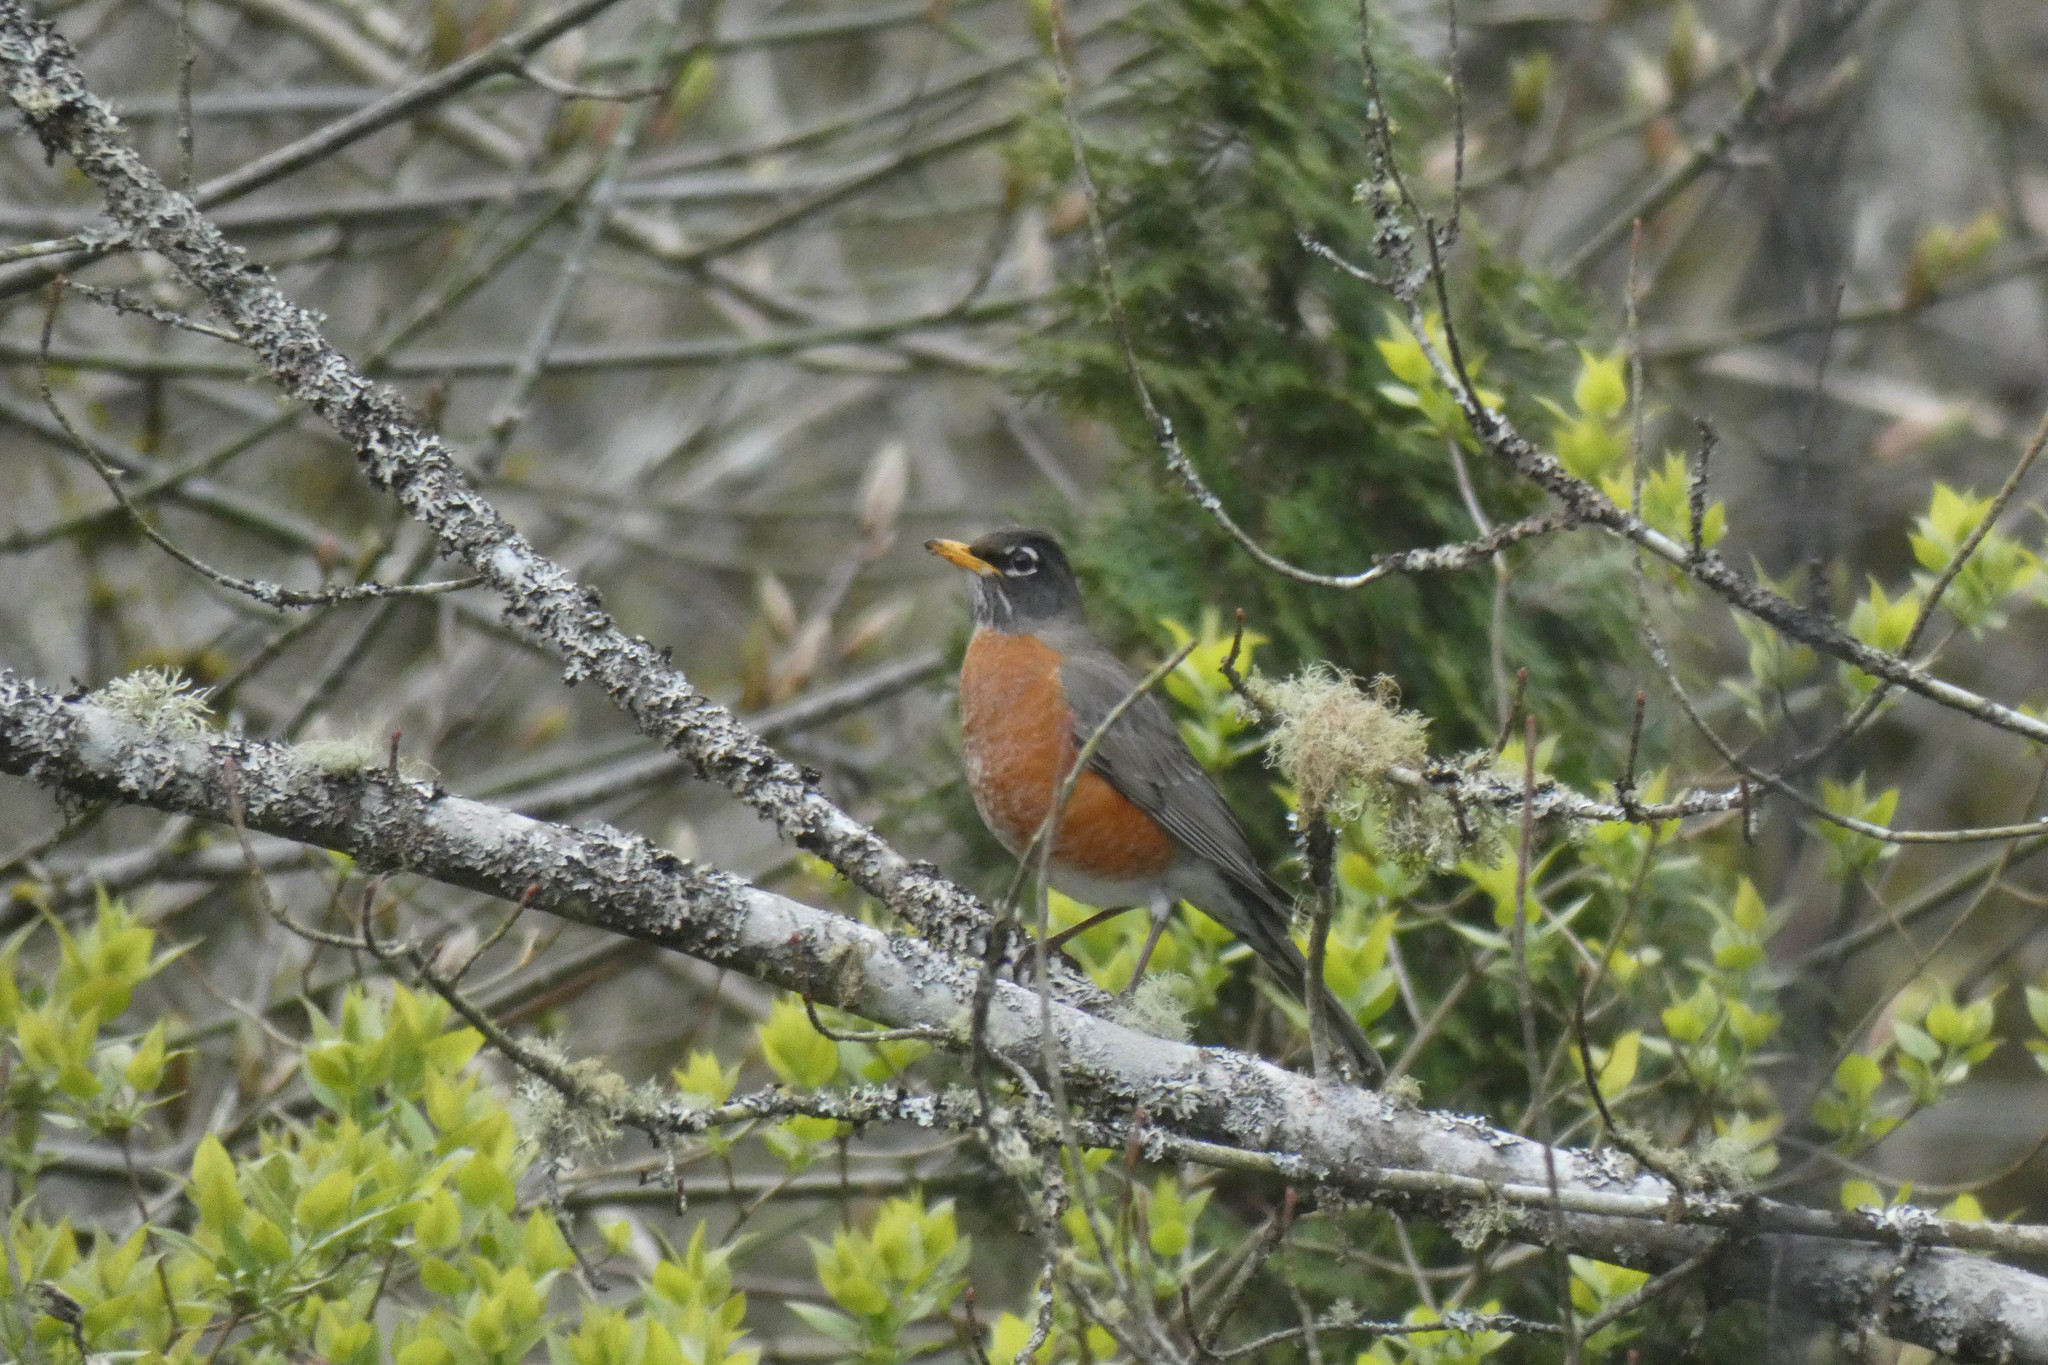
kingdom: Animalia
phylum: Chordata
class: Aves
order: Passeriformes
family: Turdidae
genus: Turdus
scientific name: Turdus migratorius
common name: American robin
